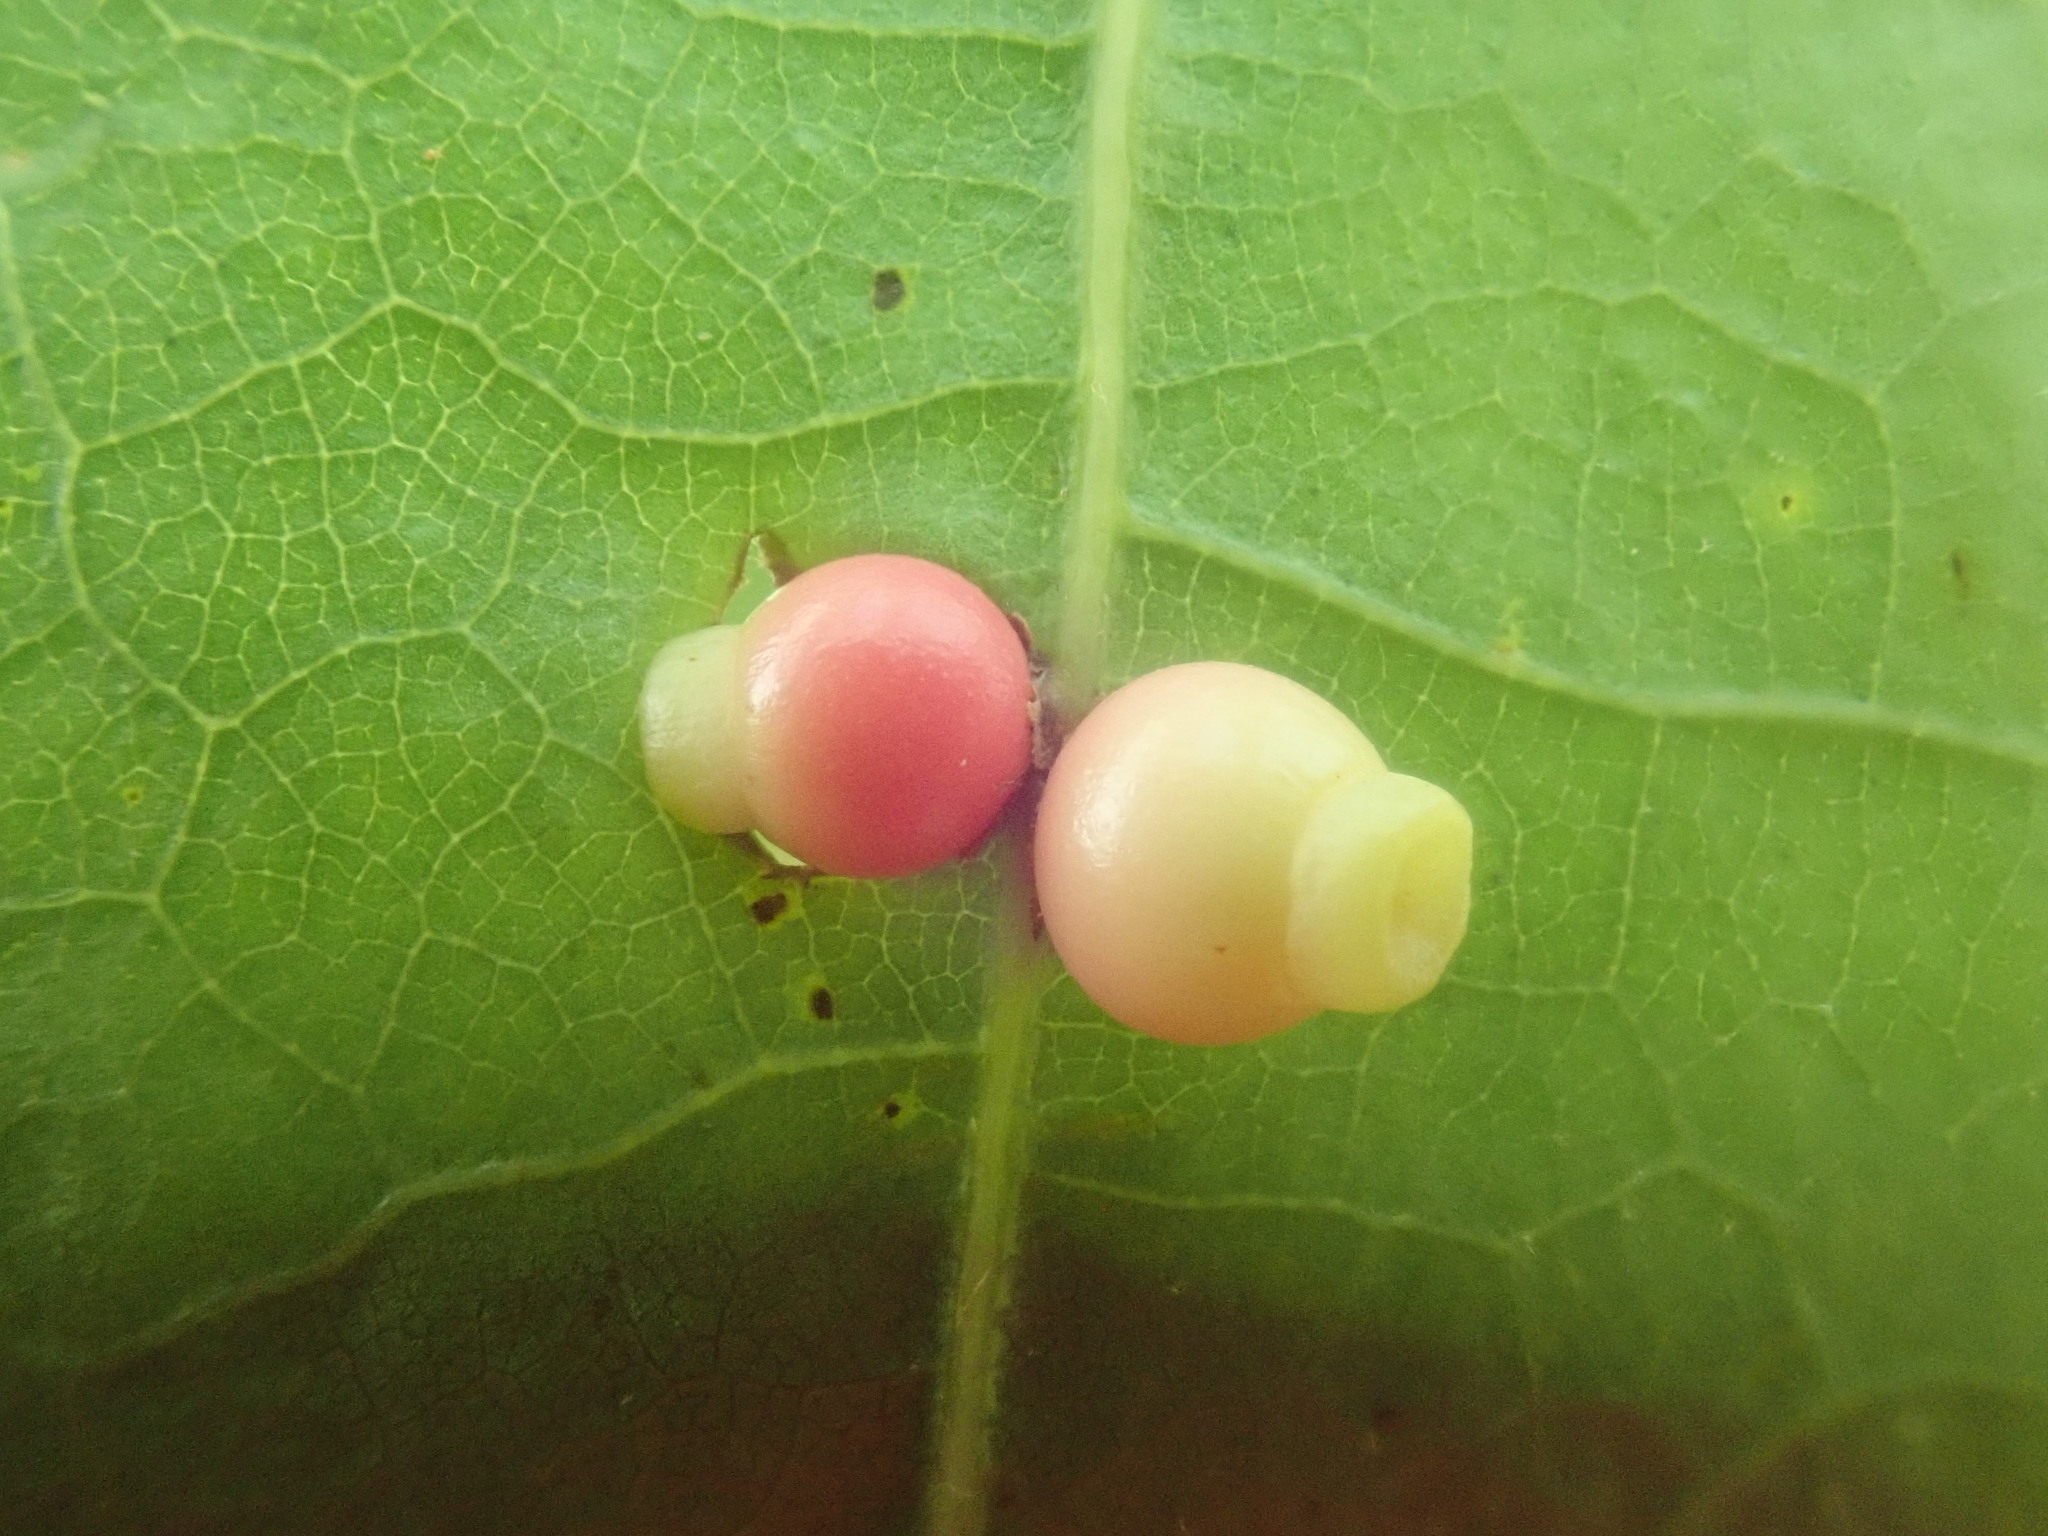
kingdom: Animalia
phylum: Arthropoda
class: Insecta
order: Hymenoptera
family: Cynipidae
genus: Kokkocynips
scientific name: Kokkocynips rileyi
